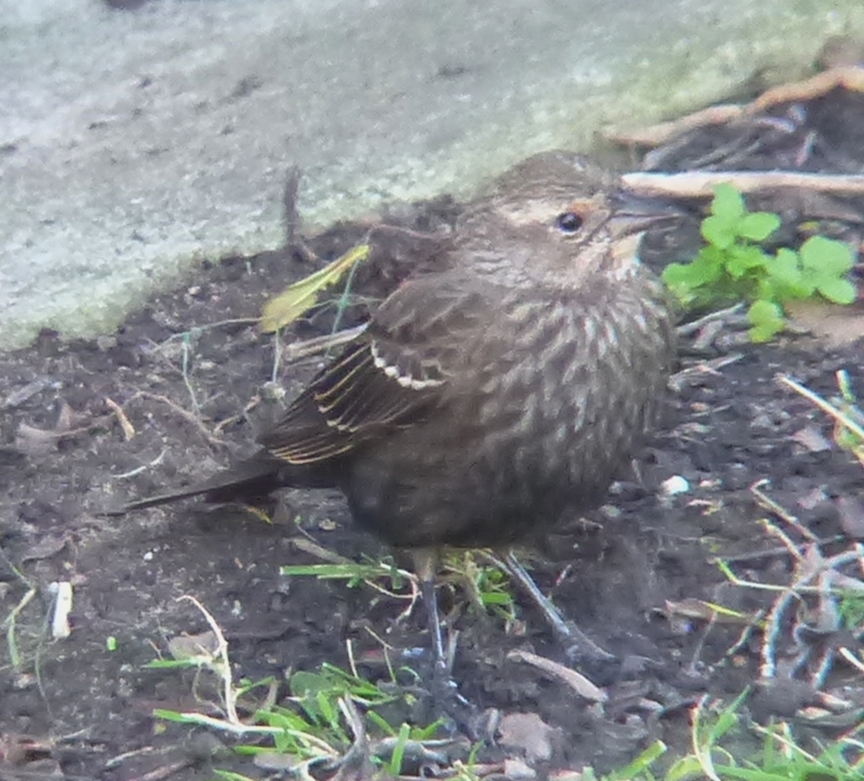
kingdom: Animalia
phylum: Chordata
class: Aves
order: Passeriformes
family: Icteridae
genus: Agelaius
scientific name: Agelaius phoeniceus
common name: Red-winged blackbird
